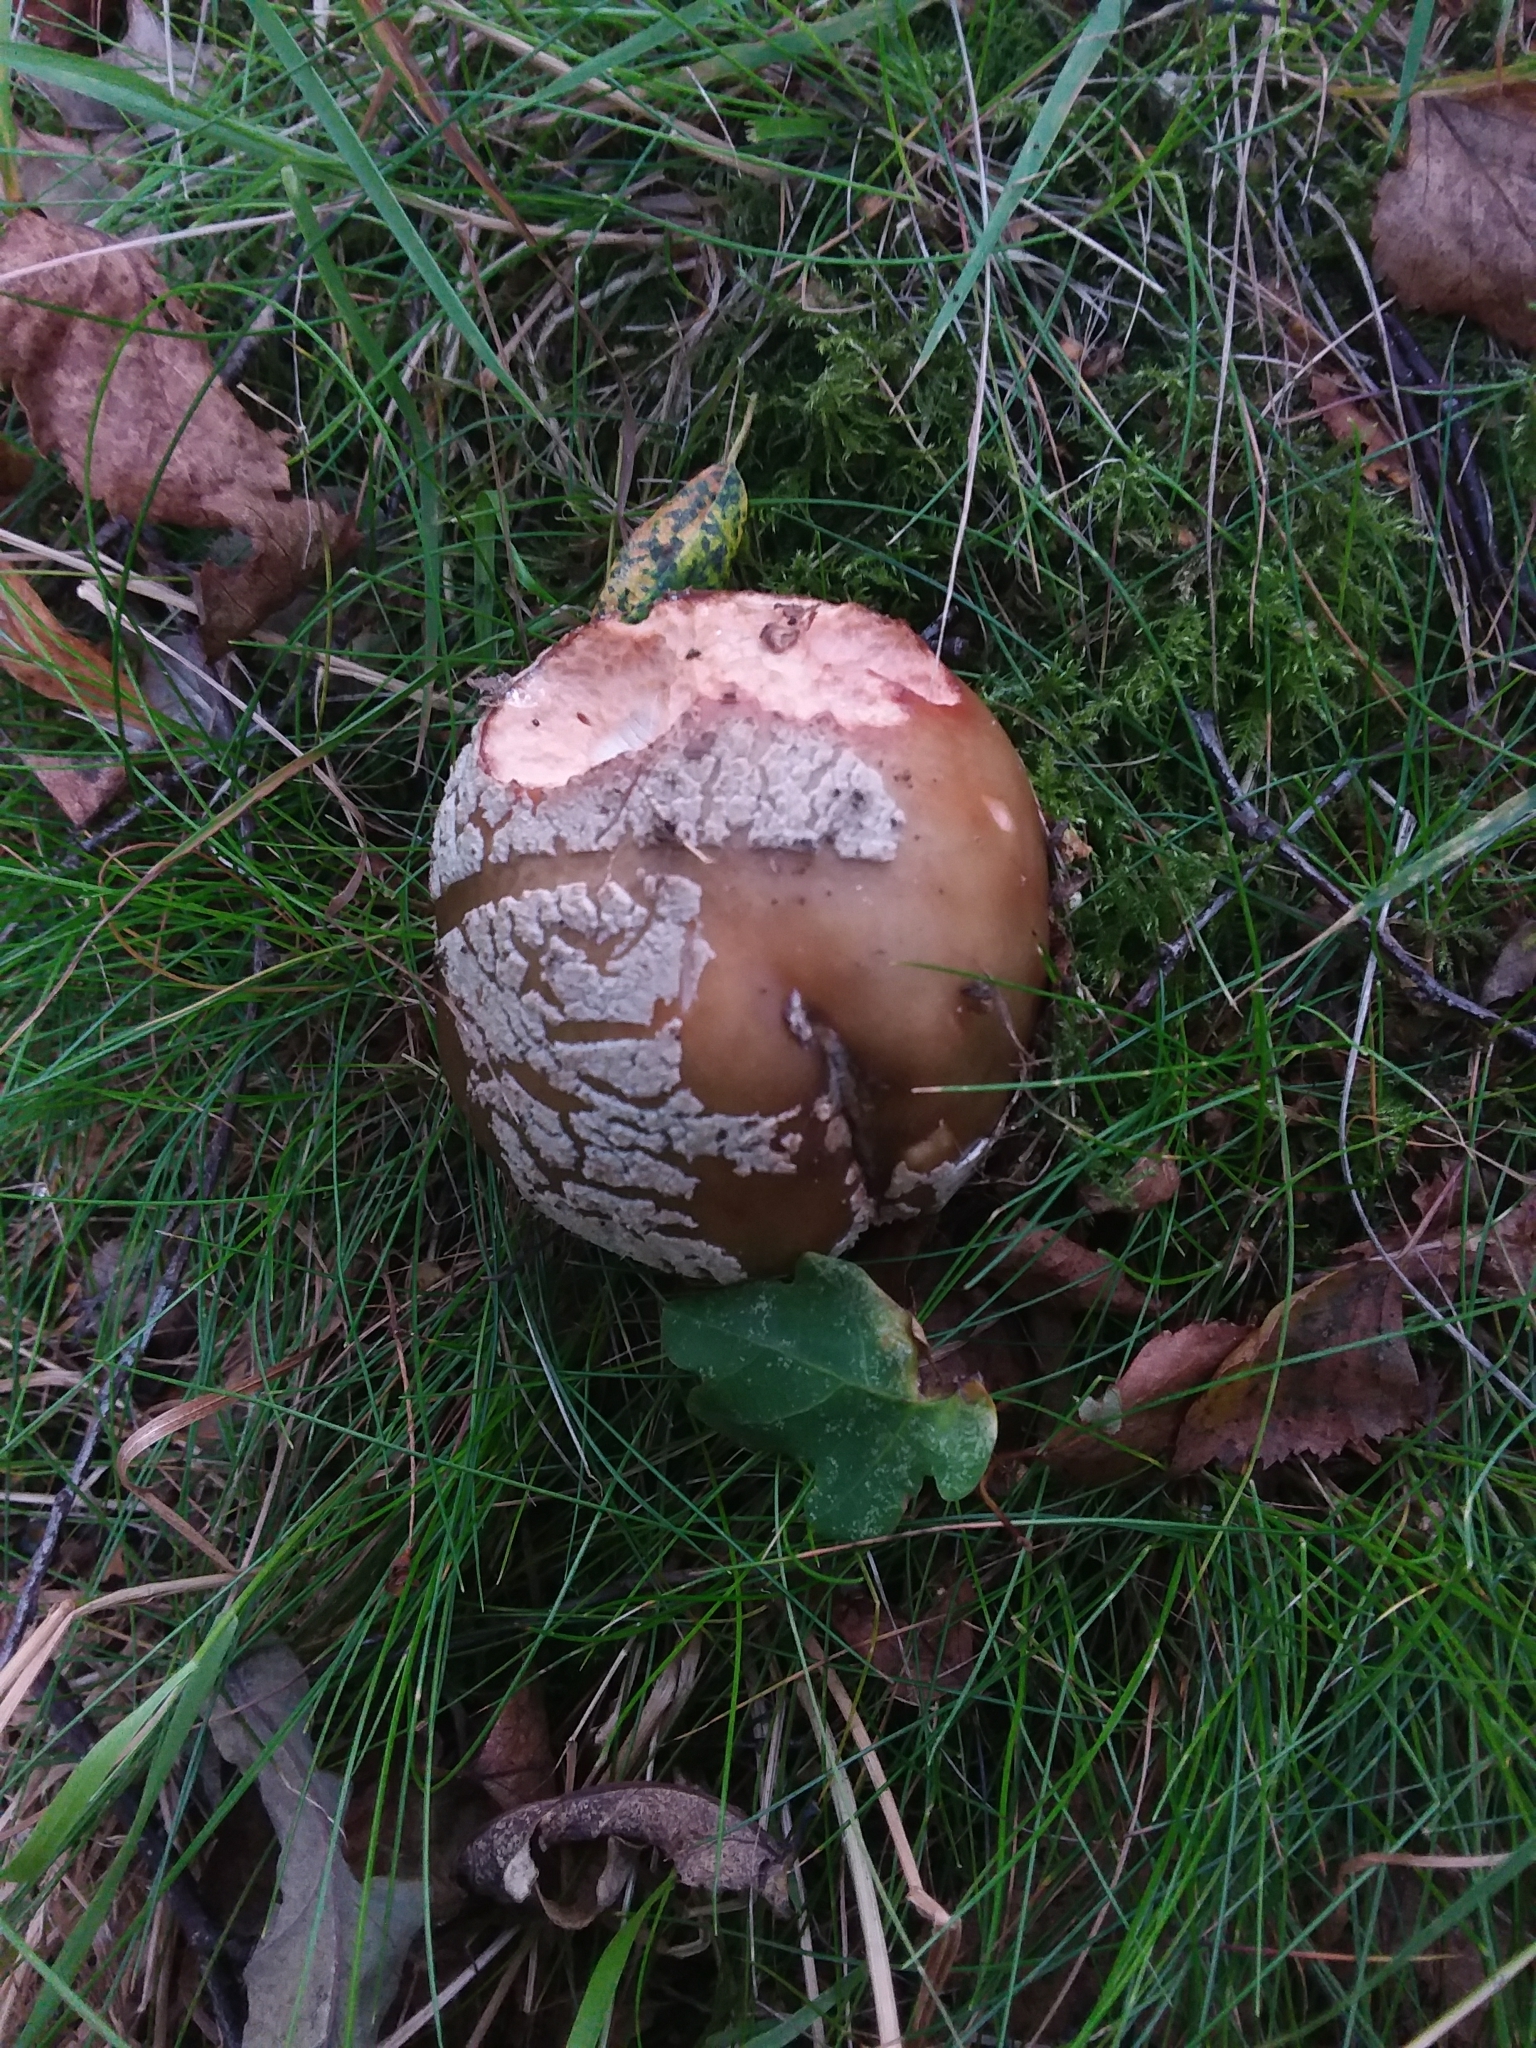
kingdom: Fungi
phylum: Basidiomycota
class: Agaricomycetes
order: Agaricales
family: Amanitaceae
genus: Amanita
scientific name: Amanita rubescens
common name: Blusher
